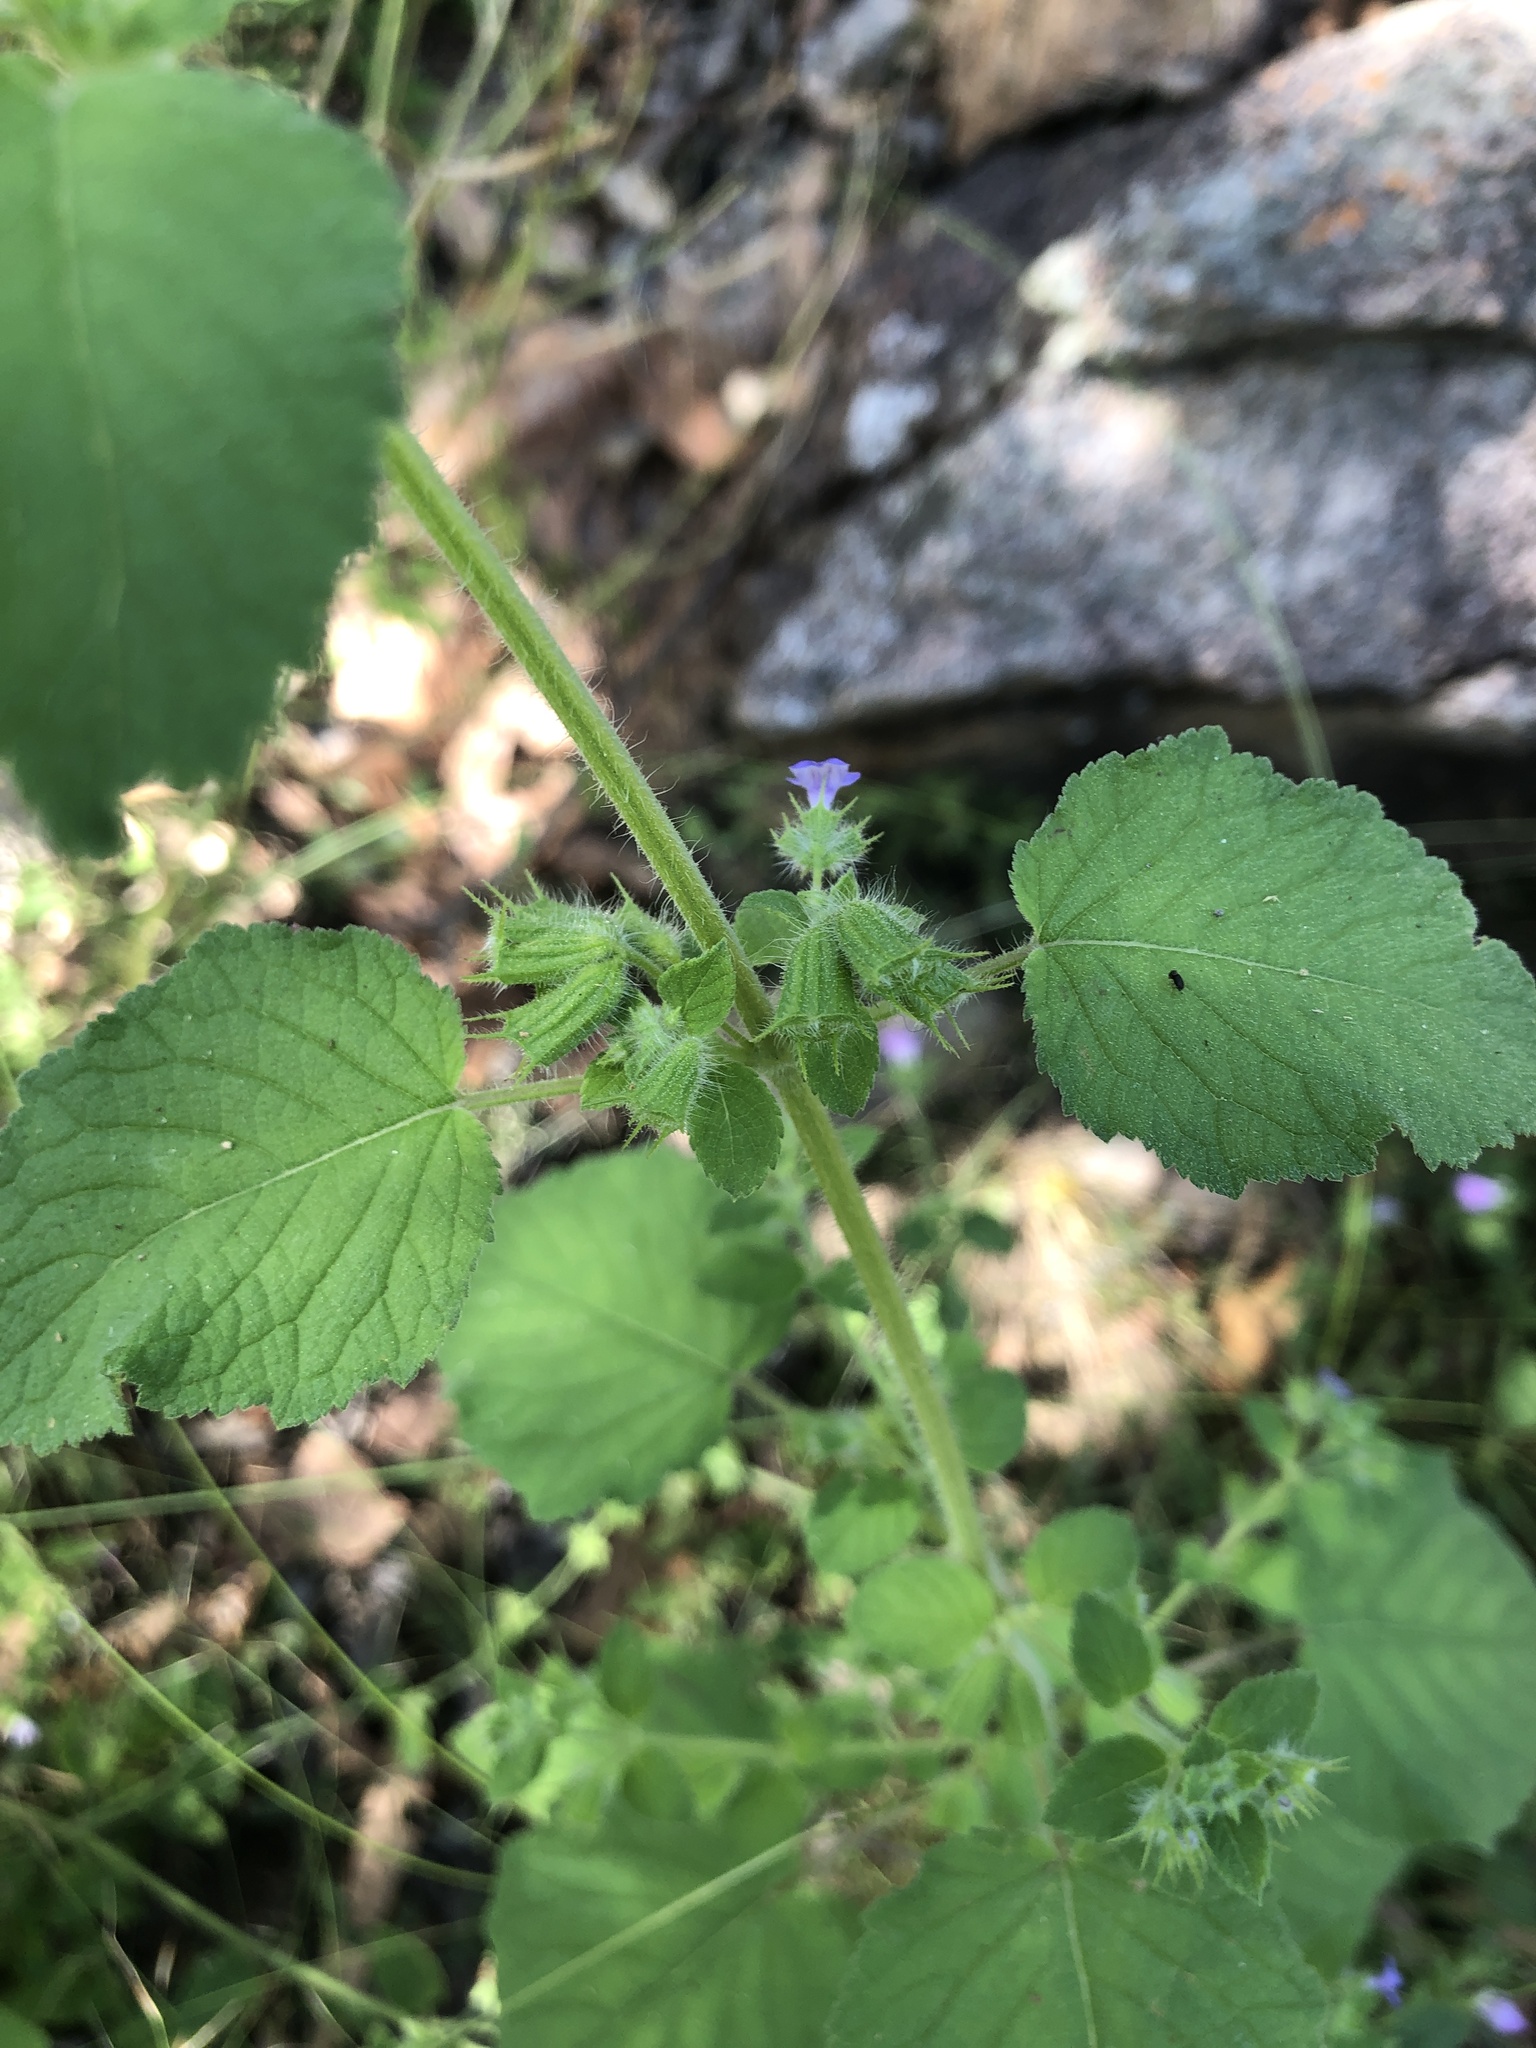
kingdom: Plantae
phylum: Tracheophyta
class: Magnoliopsida
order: Lamiales
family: Lamiaceae
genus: Mesosphaerum
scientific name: Mesosphaerum suaveolens
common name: Pignut
